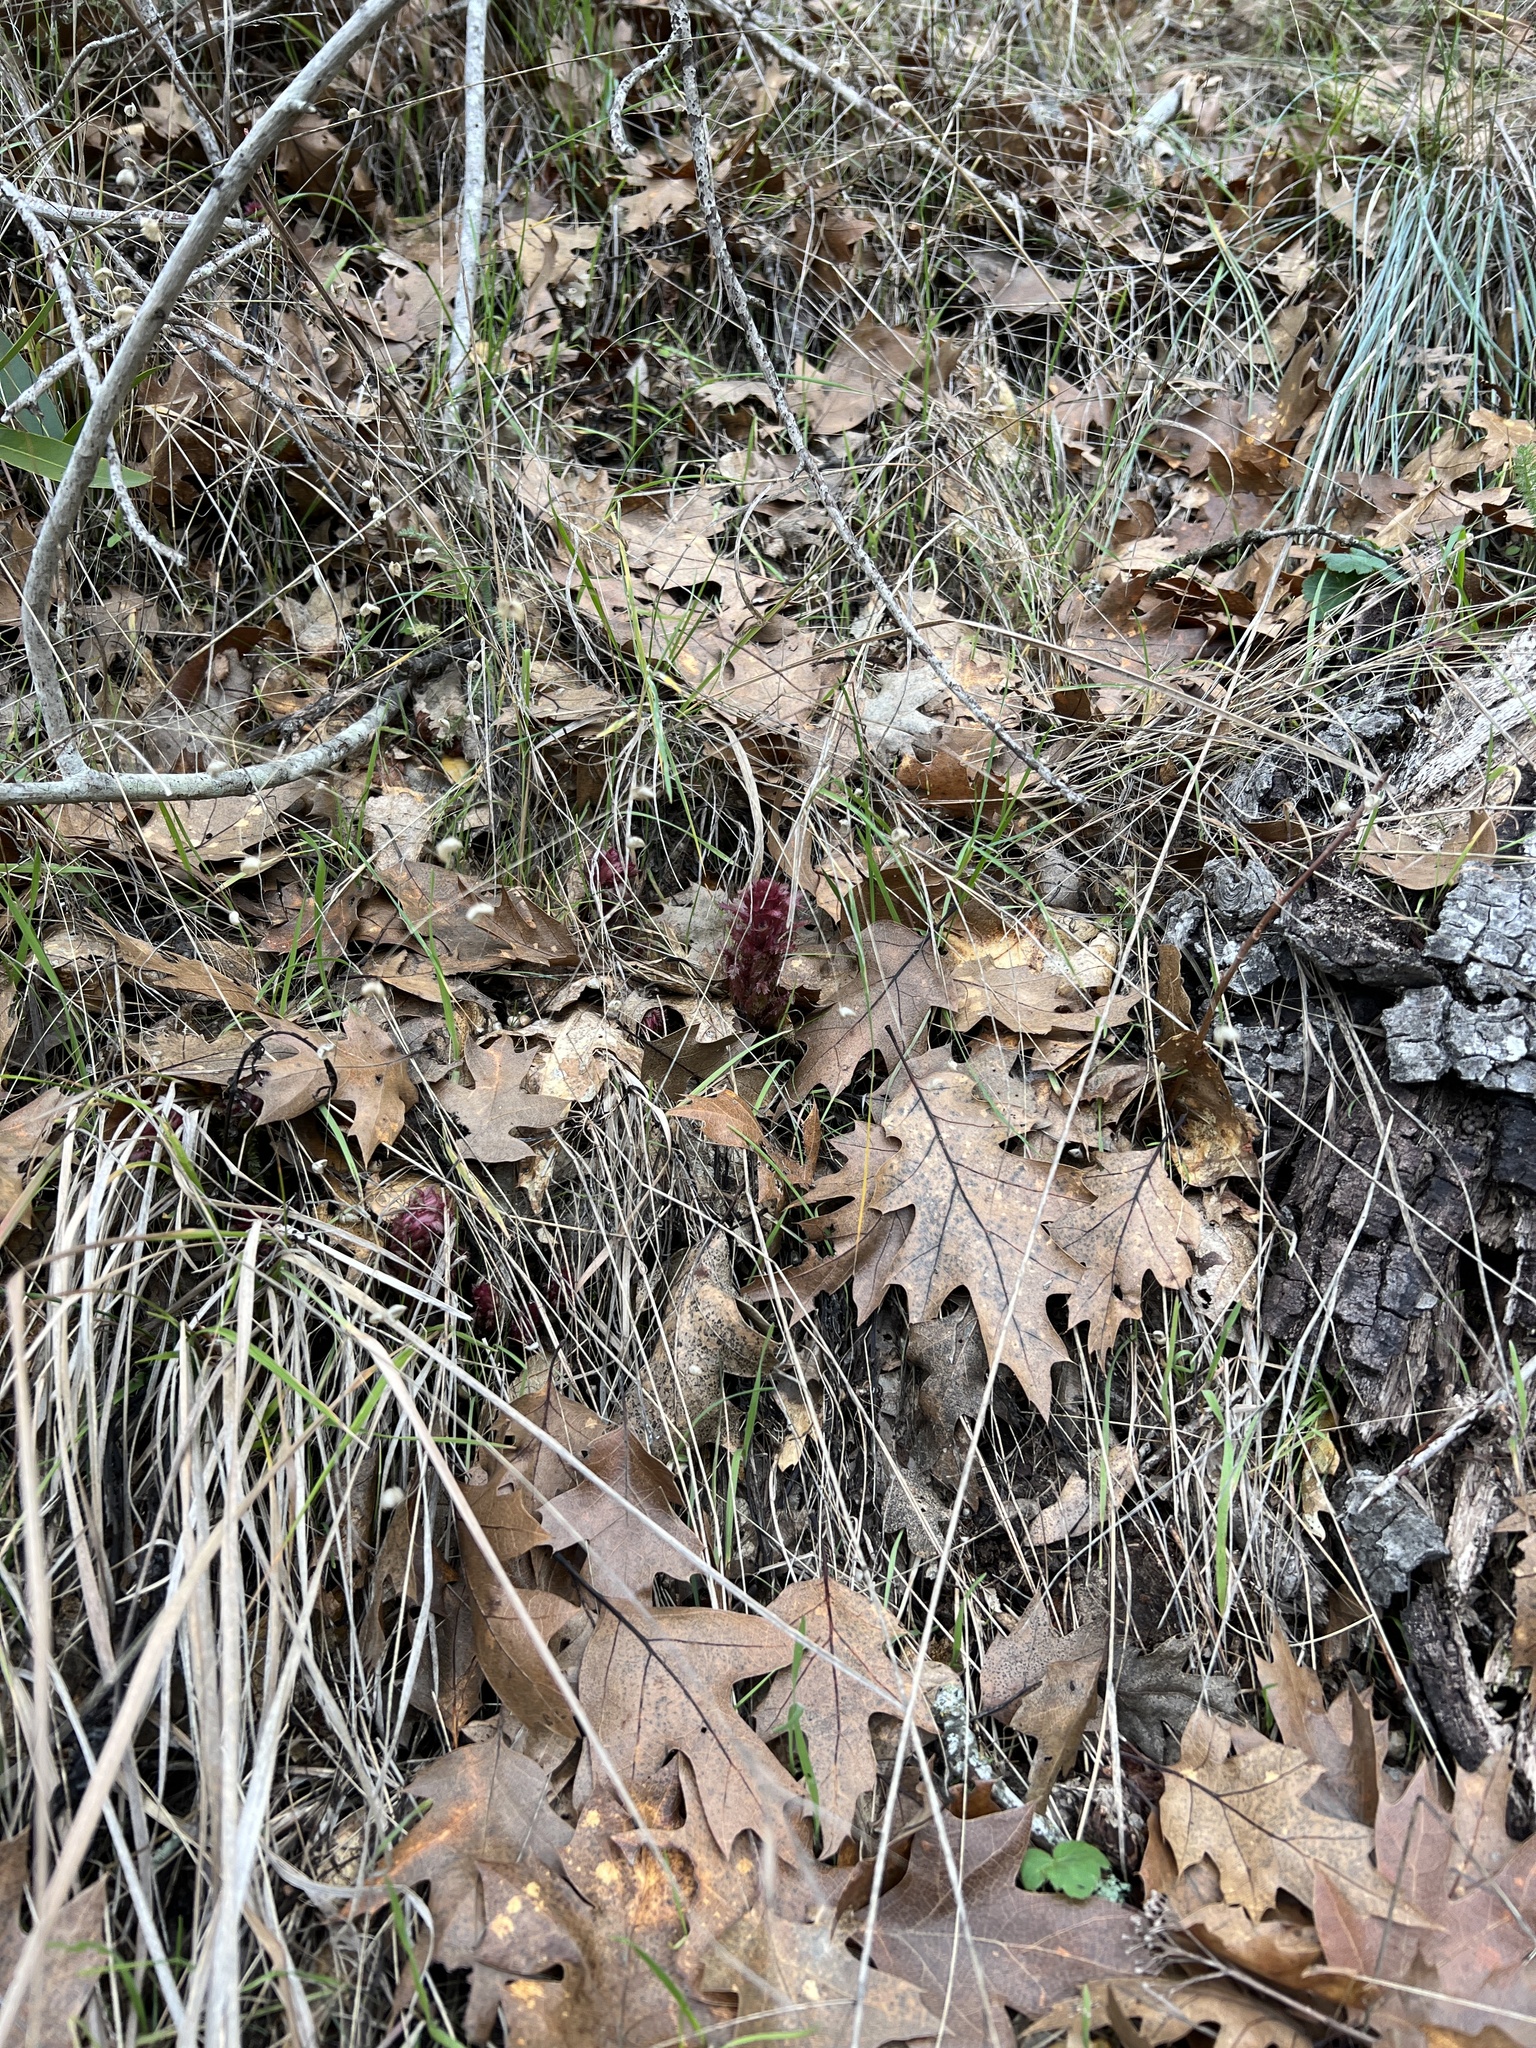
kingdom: Plantae
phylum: Tracheophyta
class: Magnoliopsida
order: Lamiales
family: Orobanchaceae
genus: Pedicularis
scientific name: Pedicularis densiflora
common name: Indian warrior
